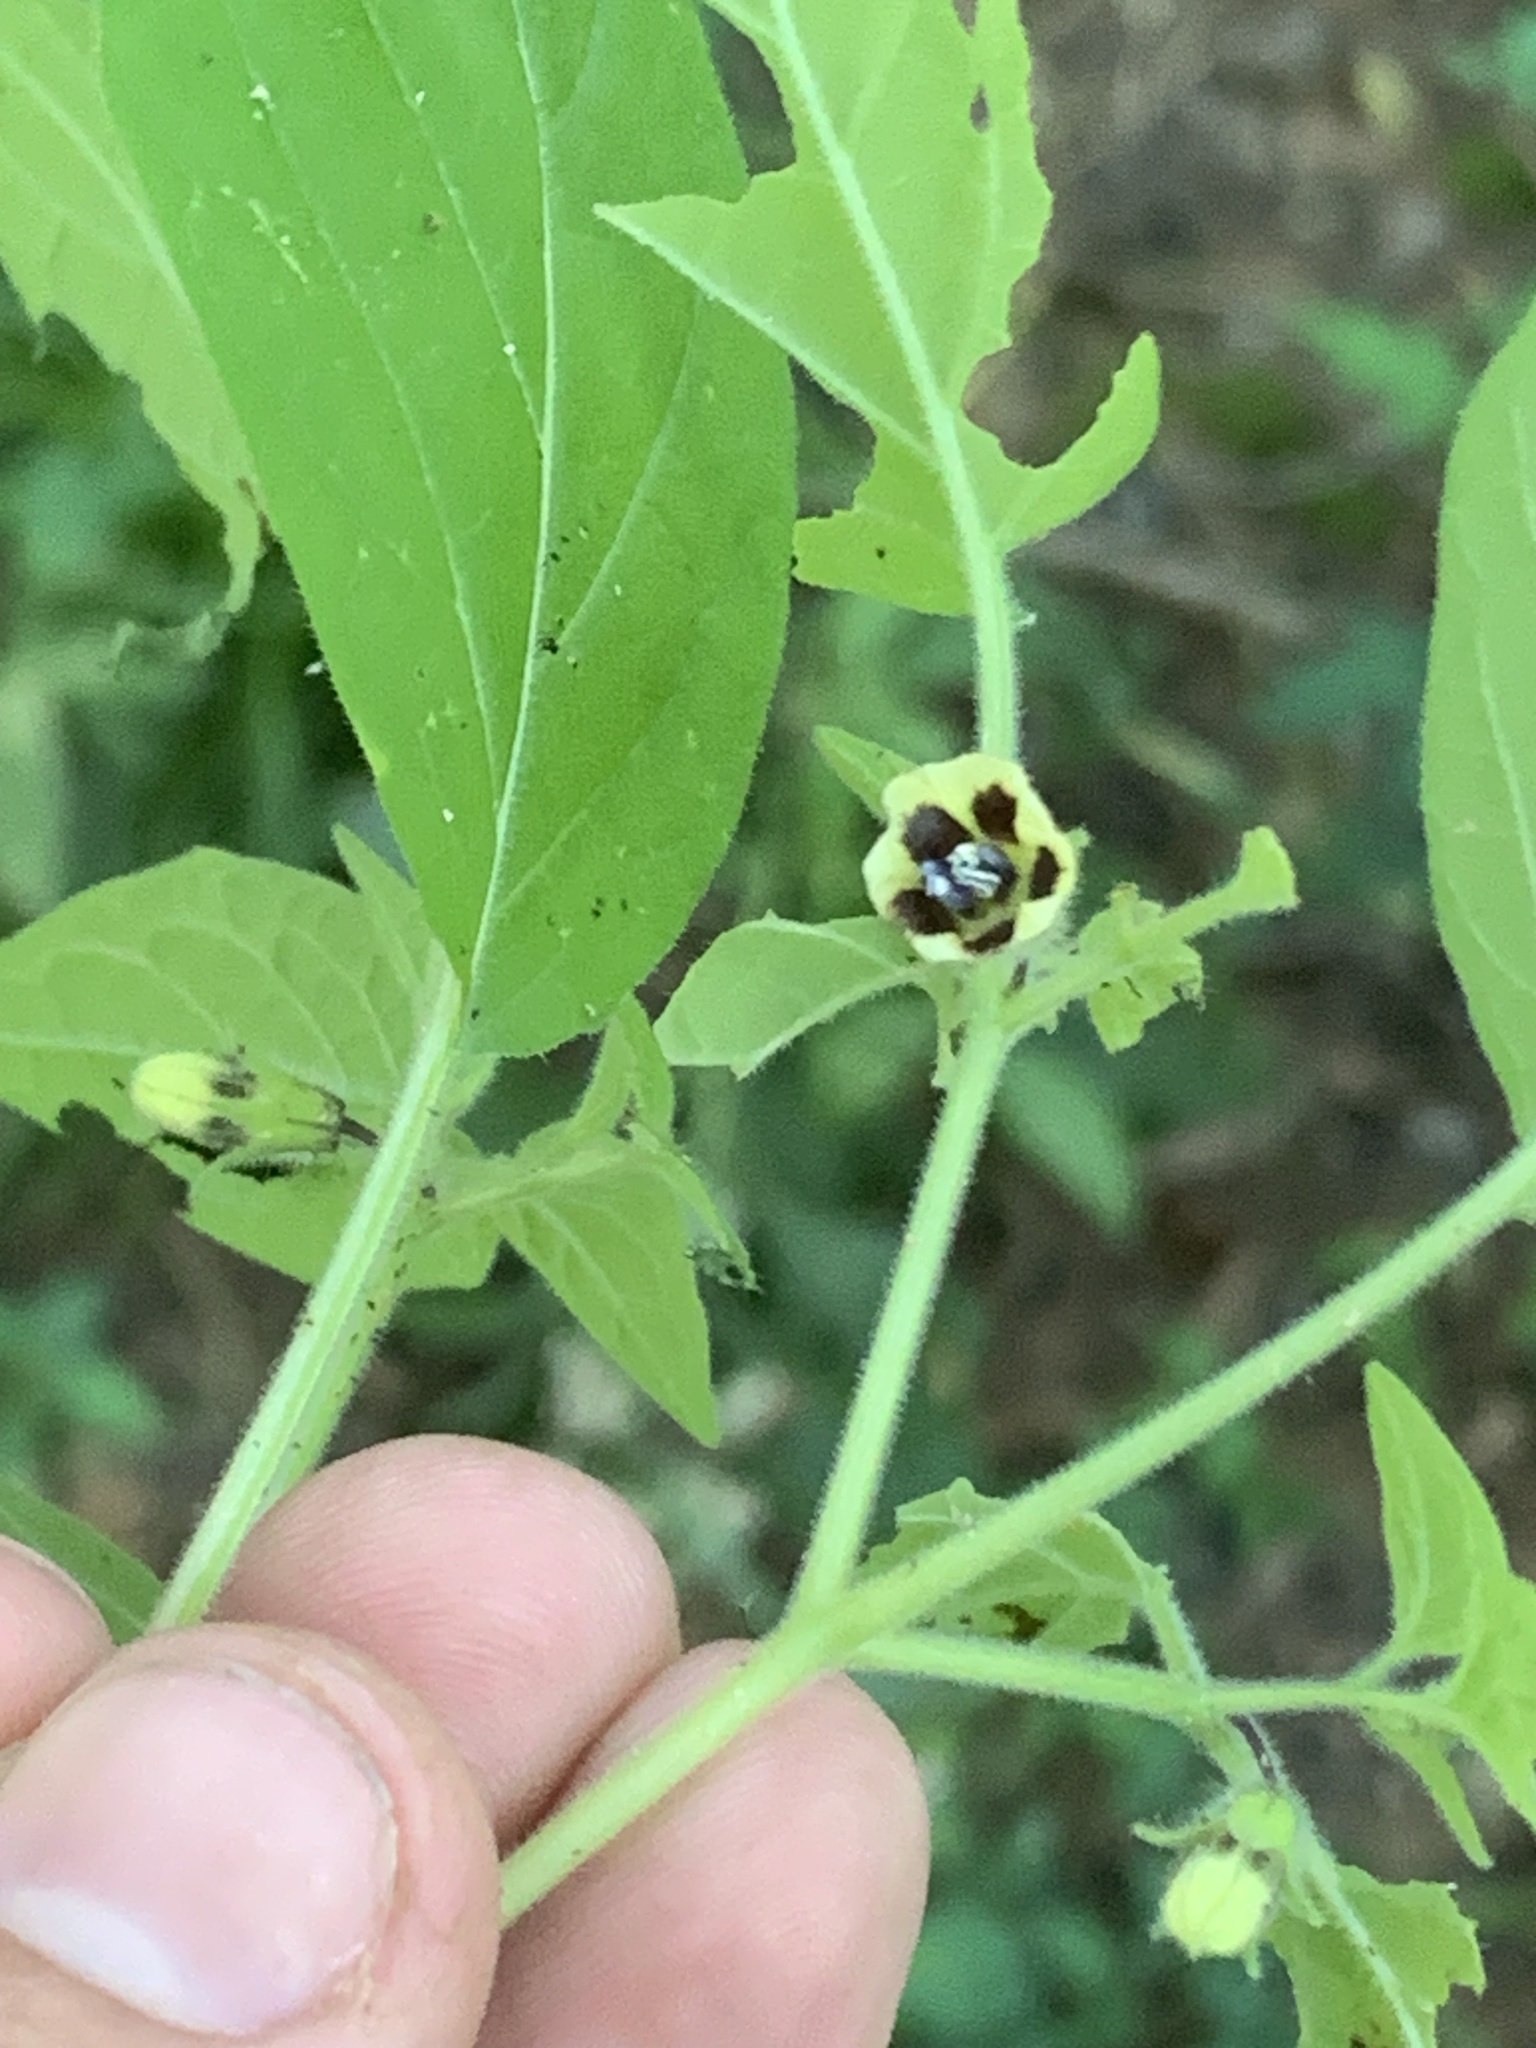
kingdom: Plantae
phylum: Tracheophyta
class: Magnoliopsida
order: Solanales
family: Solanaceae
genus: Physalis
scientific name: Physalis pubescens
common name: Downy ground-cherry
